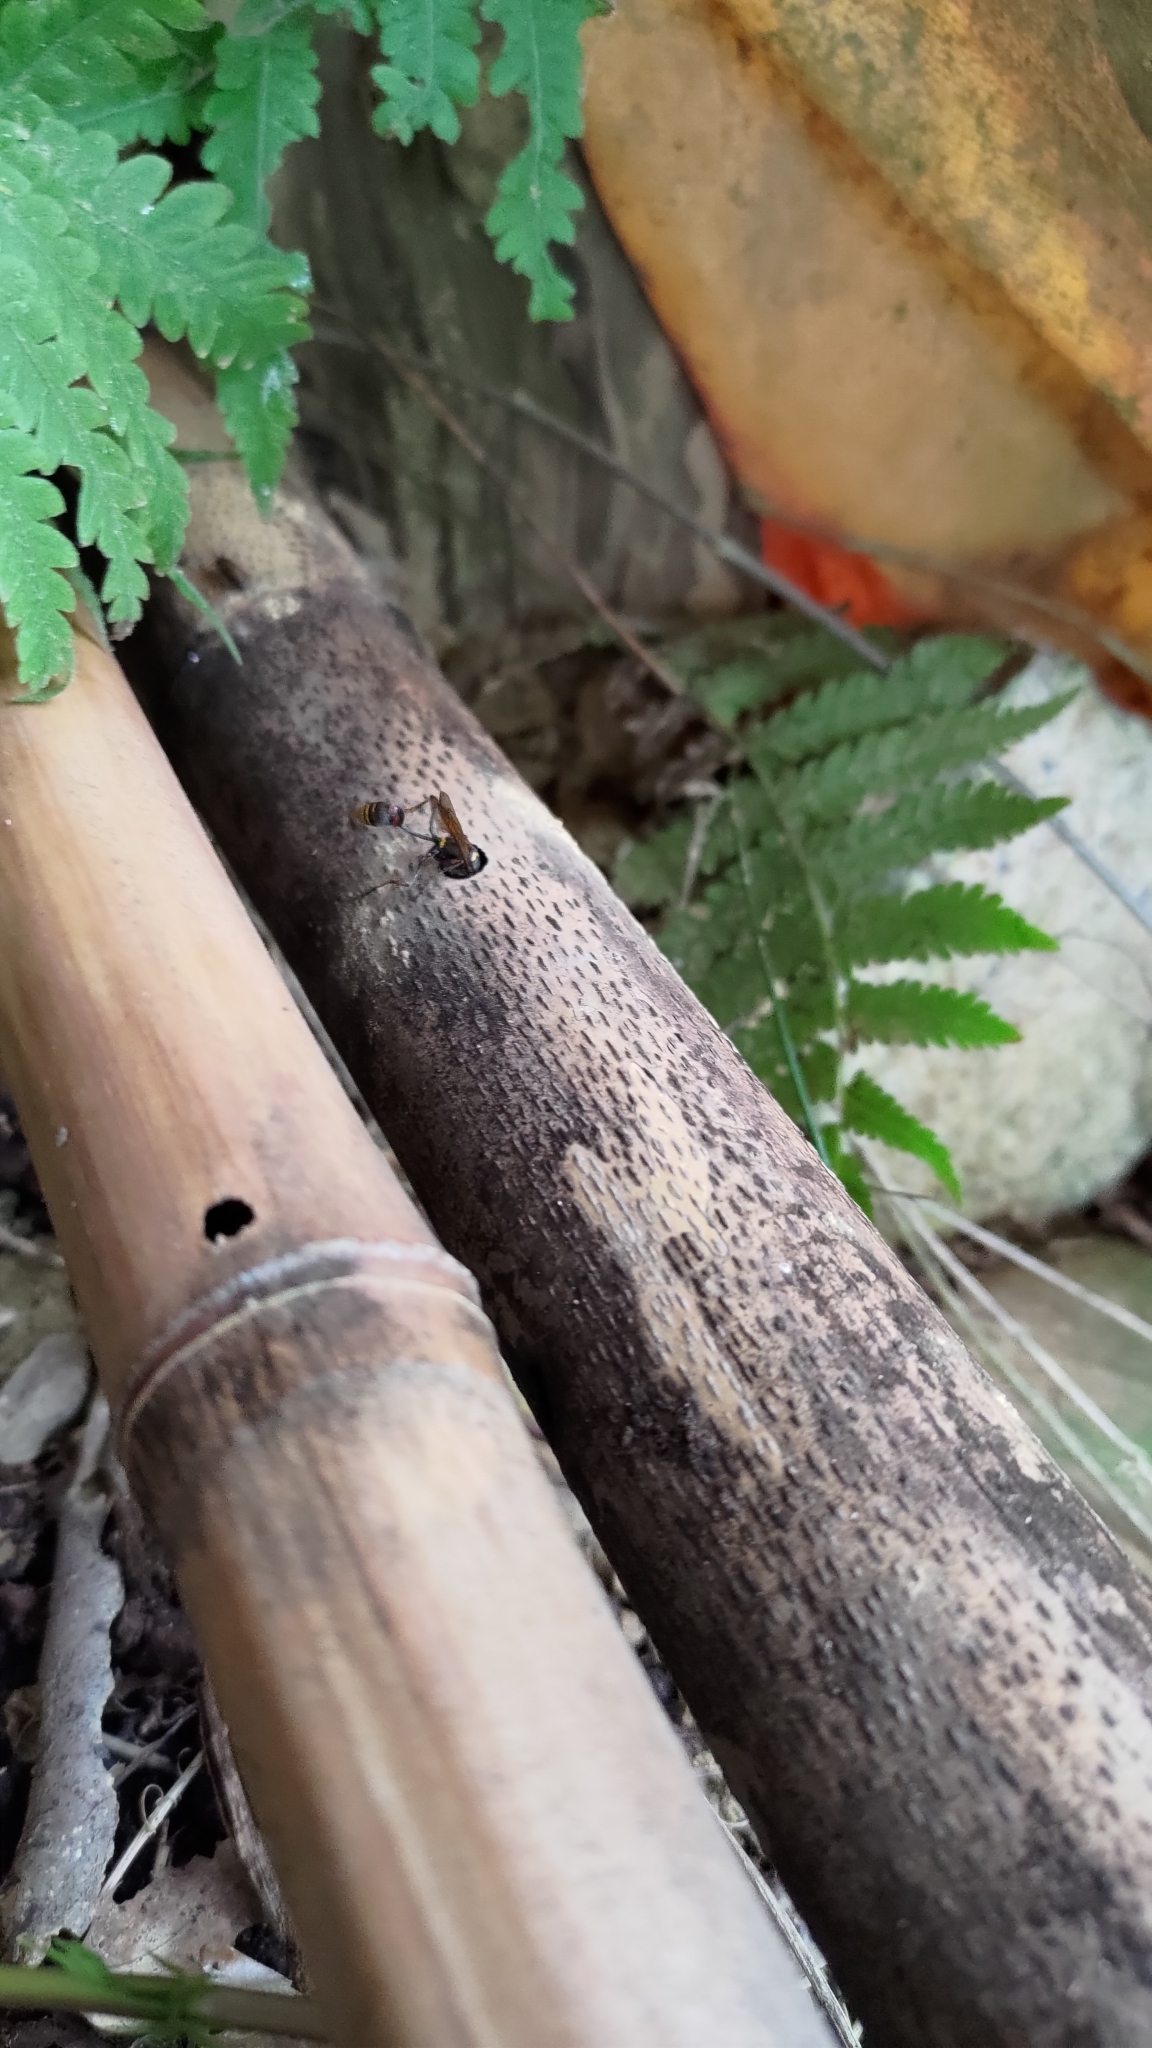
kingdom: Animalia
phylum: Arthropoda
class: Insecta
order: Hymenoptera
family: Sphecidae
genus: Sceliphron
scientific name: Sceliphron deforme
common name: Pelopèe
